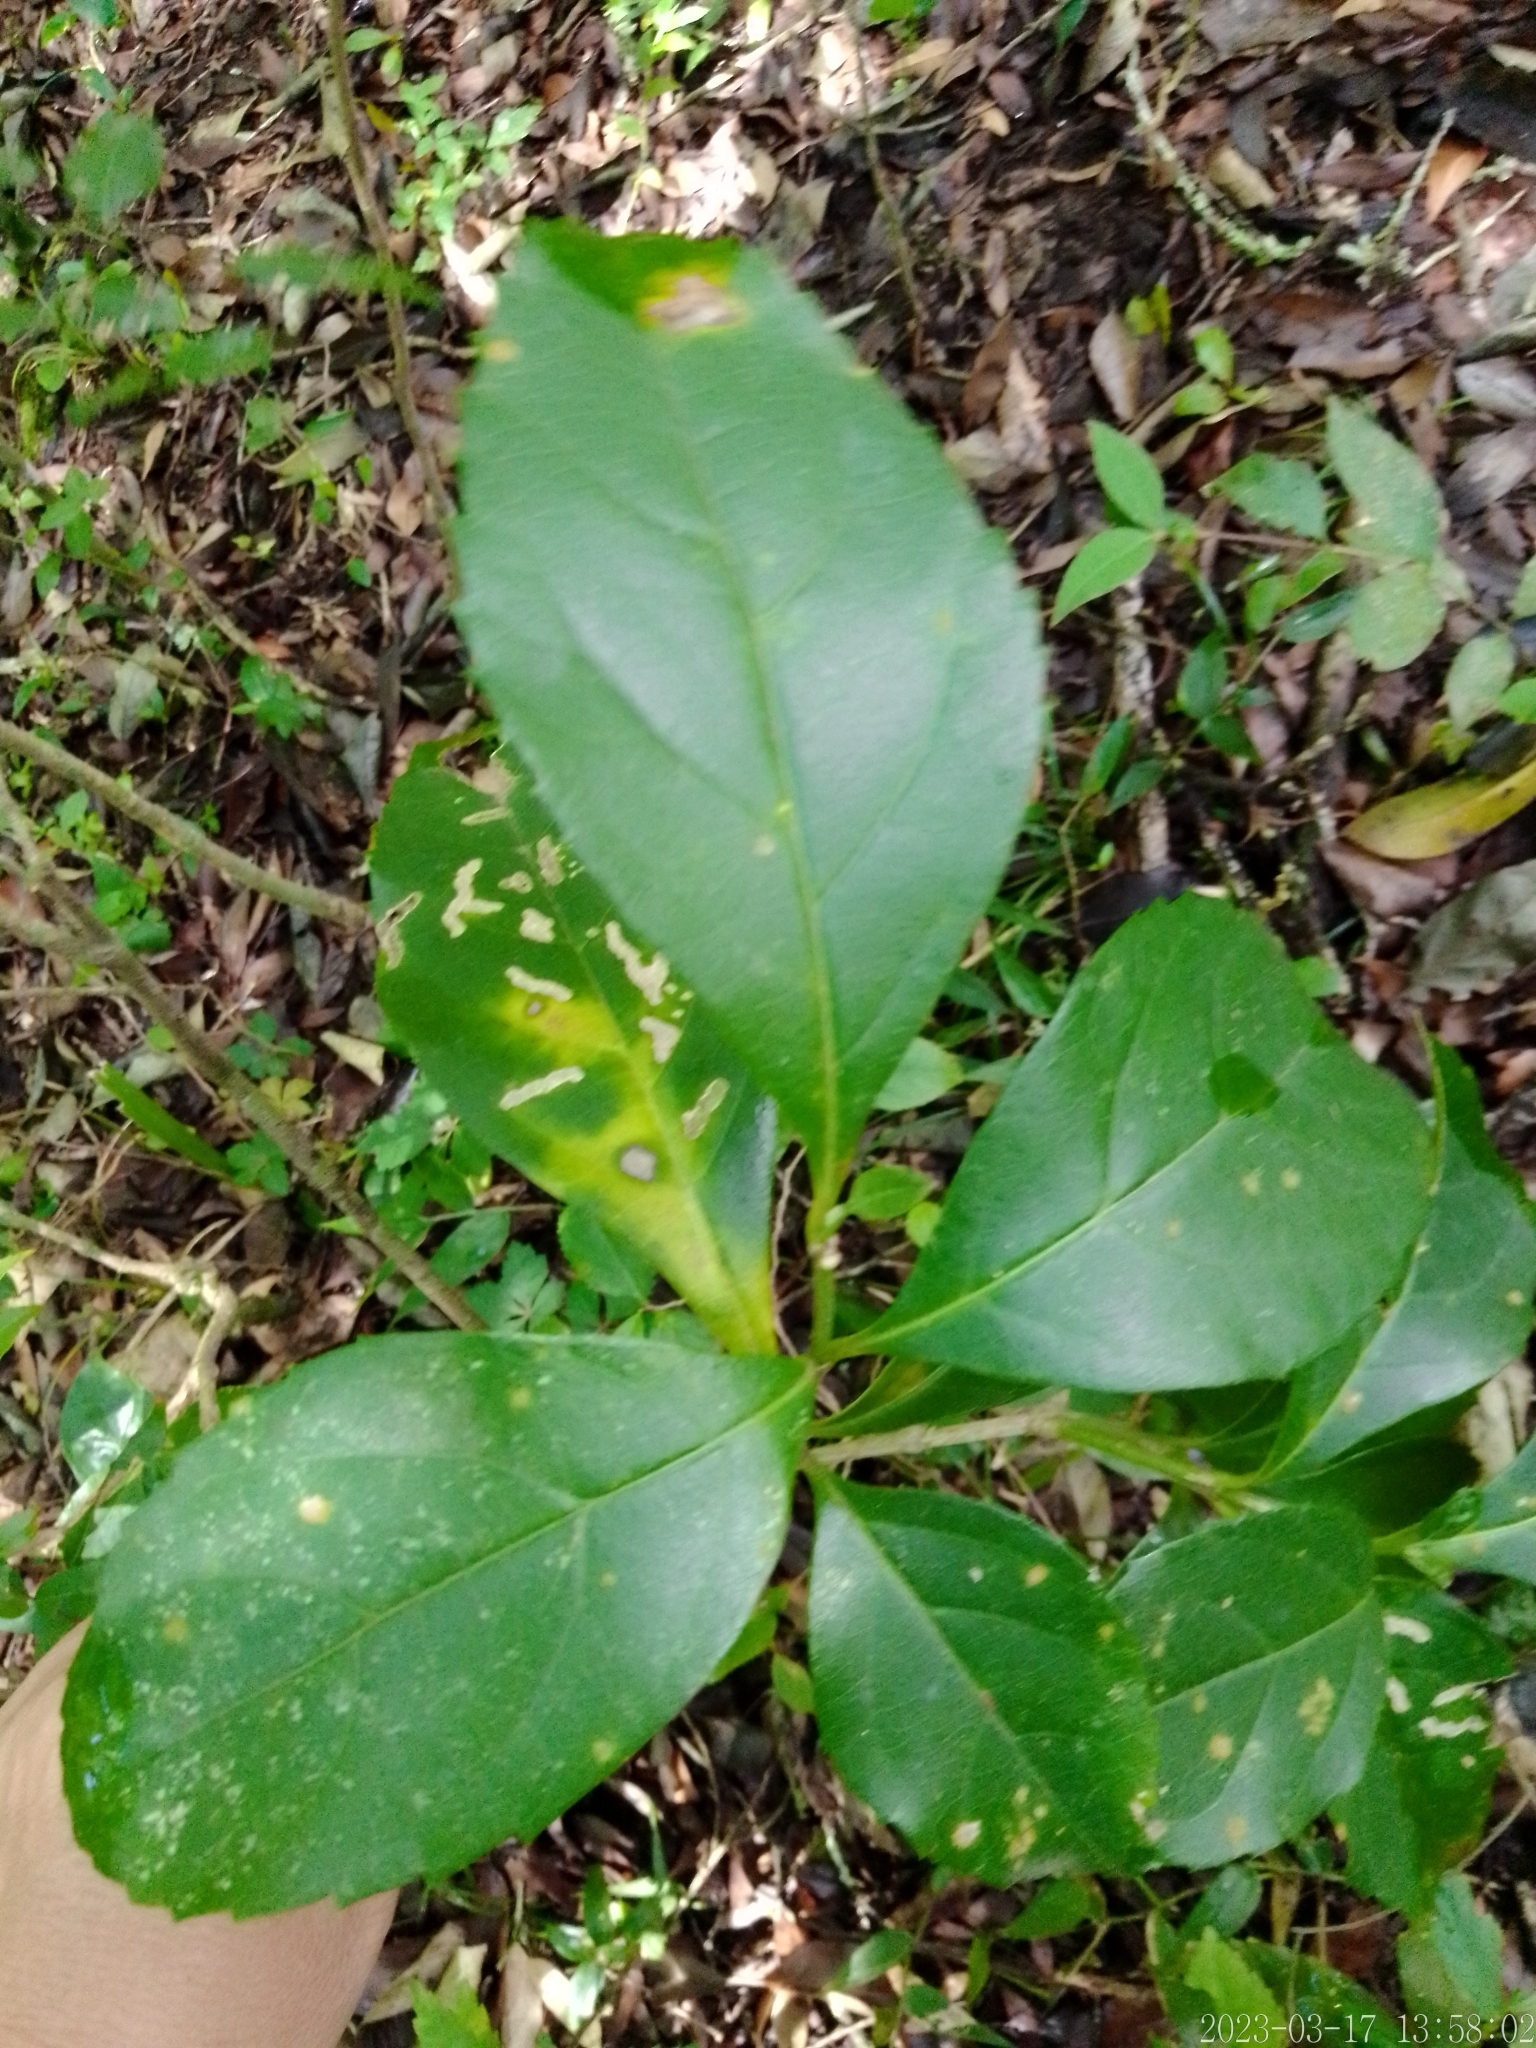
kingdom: Plantae
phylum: Tracheophyta
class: Magnoliopsida
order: Lamiales
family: Verbenaceae
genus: Citharexylum
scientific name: Citharexylum montevidense
